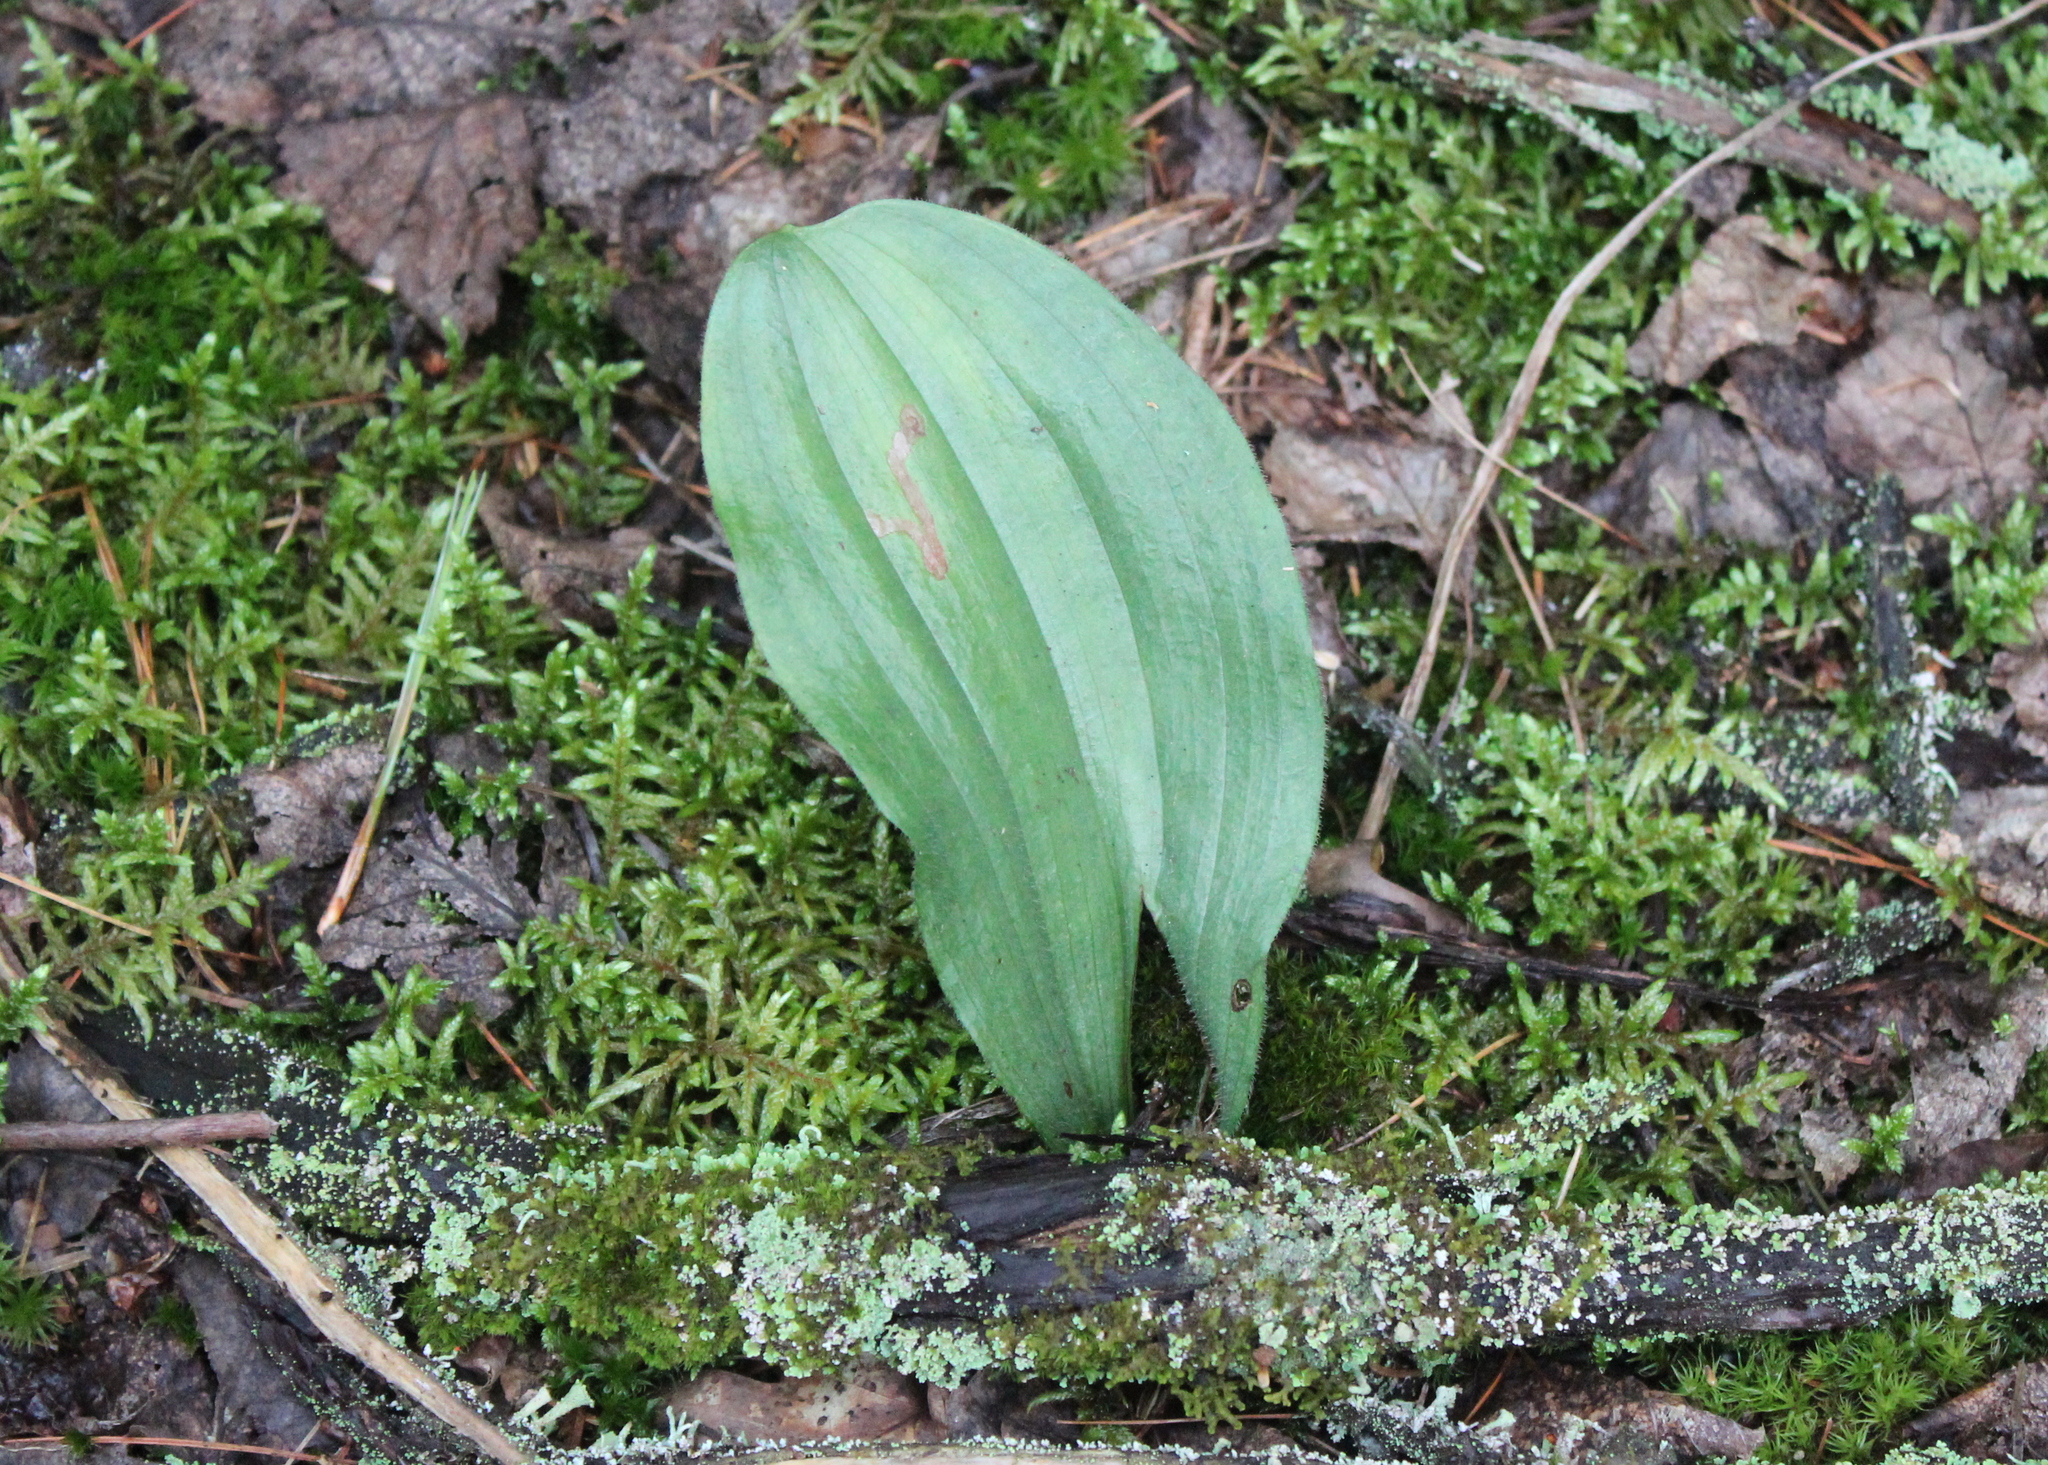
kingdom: Plantae
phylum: Tracheophyta
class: Liliopsida
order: Asparagales
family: Orchidaceae
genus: Cypripedium
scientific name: Cypripedium acaule
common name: Pink lady's-slipper
